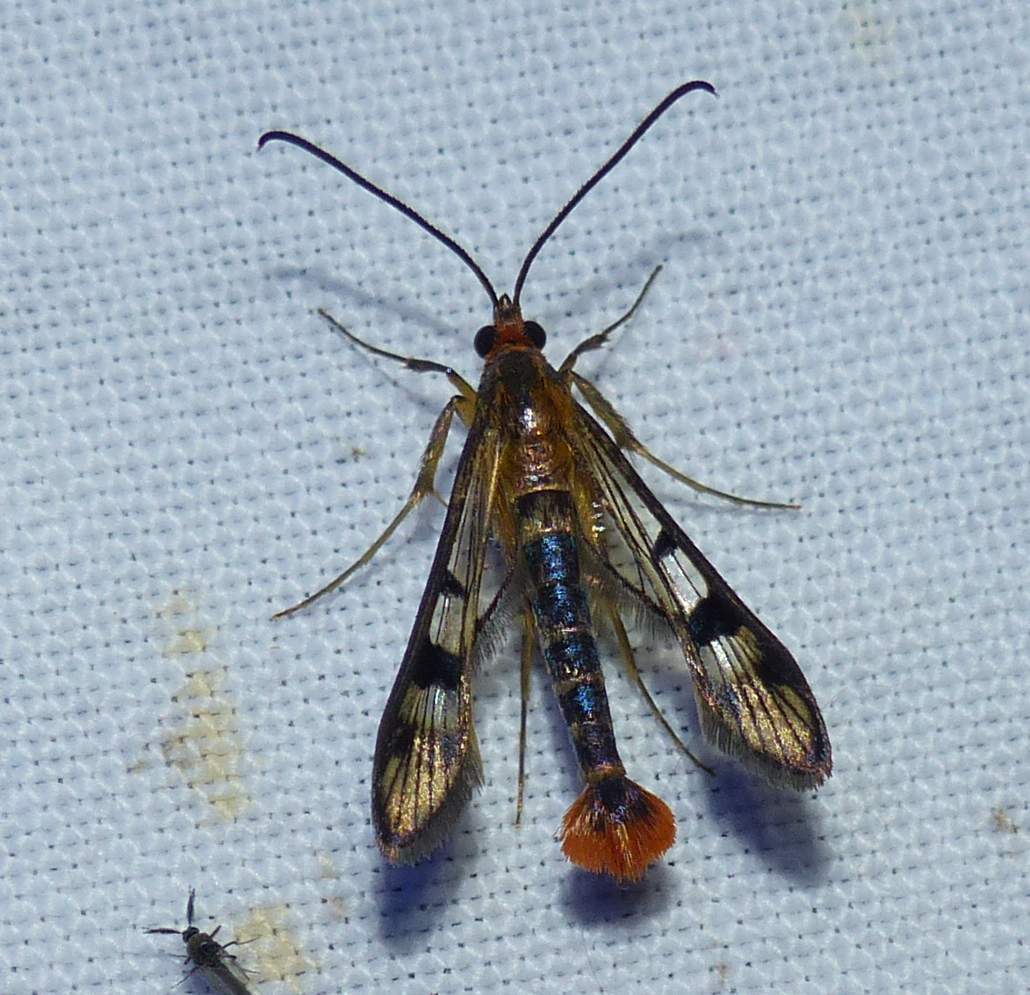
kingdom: Animalia
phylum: Arthropoda
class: Insecta
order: Lepidoptera
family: Sesiidae
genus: Synanthedon
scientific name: Synanthedon acerni
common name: Maple callus borer moth
